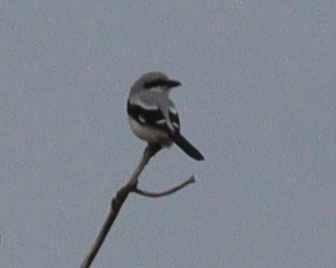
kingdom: Animalia
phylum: Chordata
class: Aves
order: Passeriformes
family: Laniidae
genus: Lanius
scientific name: Lanius excubitor
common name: Great grey shrike
